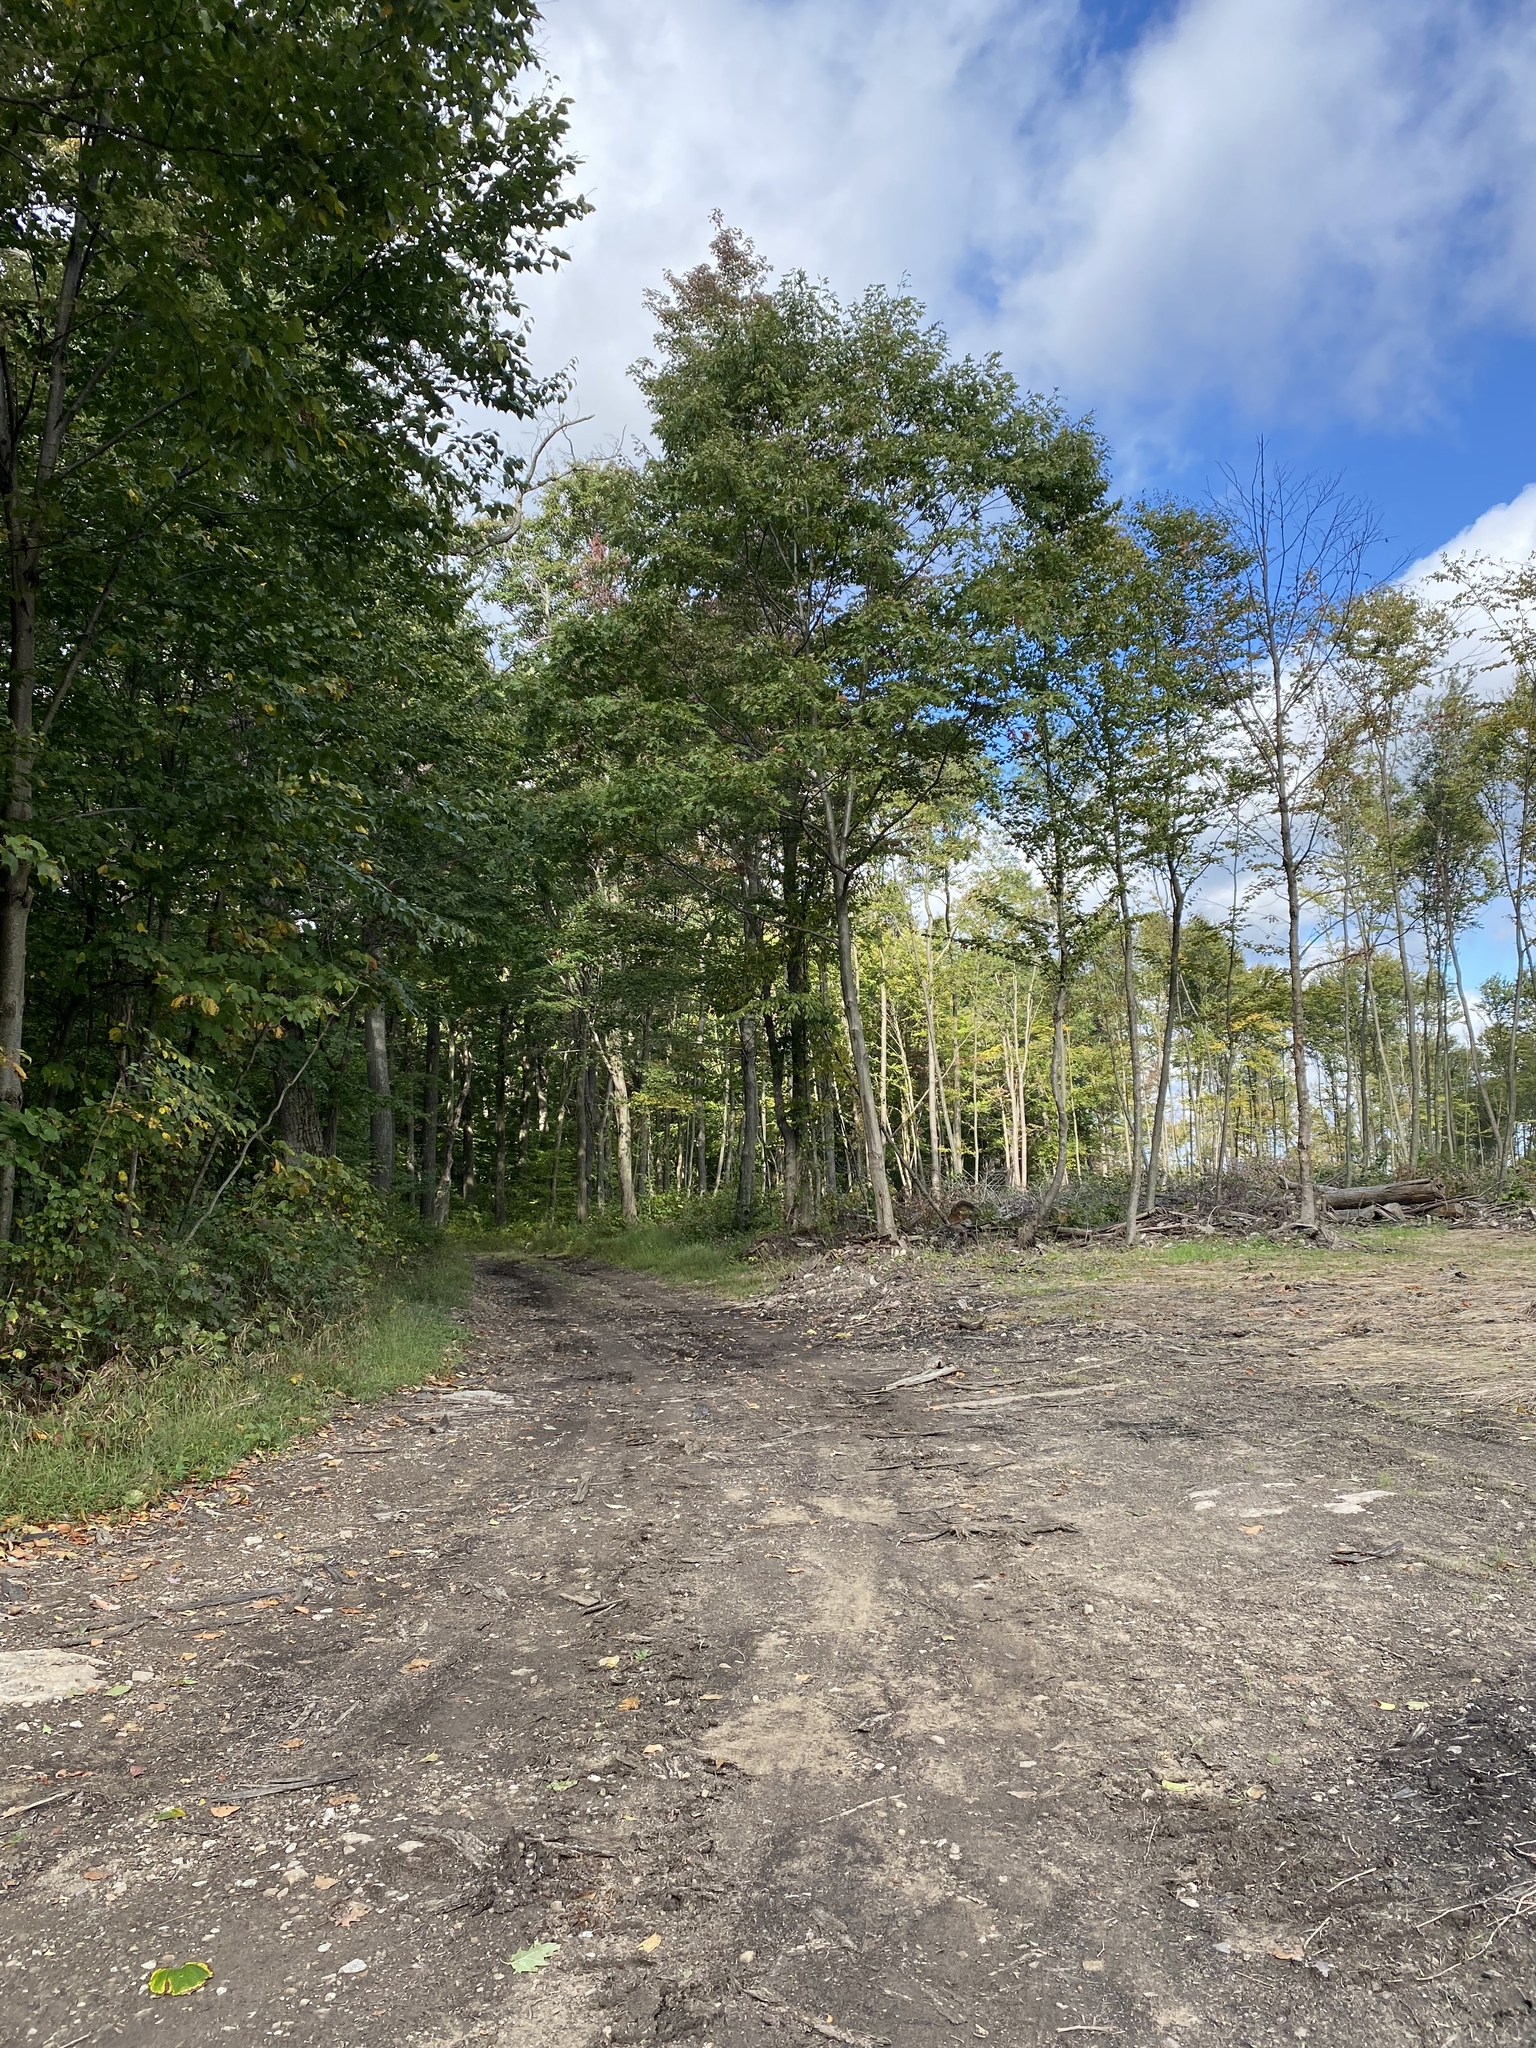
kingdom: Plantae
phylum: Tracheophyta
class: Magnoliopsida
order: Apiales
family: Araliaceae
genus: Aralia
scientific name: Aralia spinosa
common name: Hercules'-club
